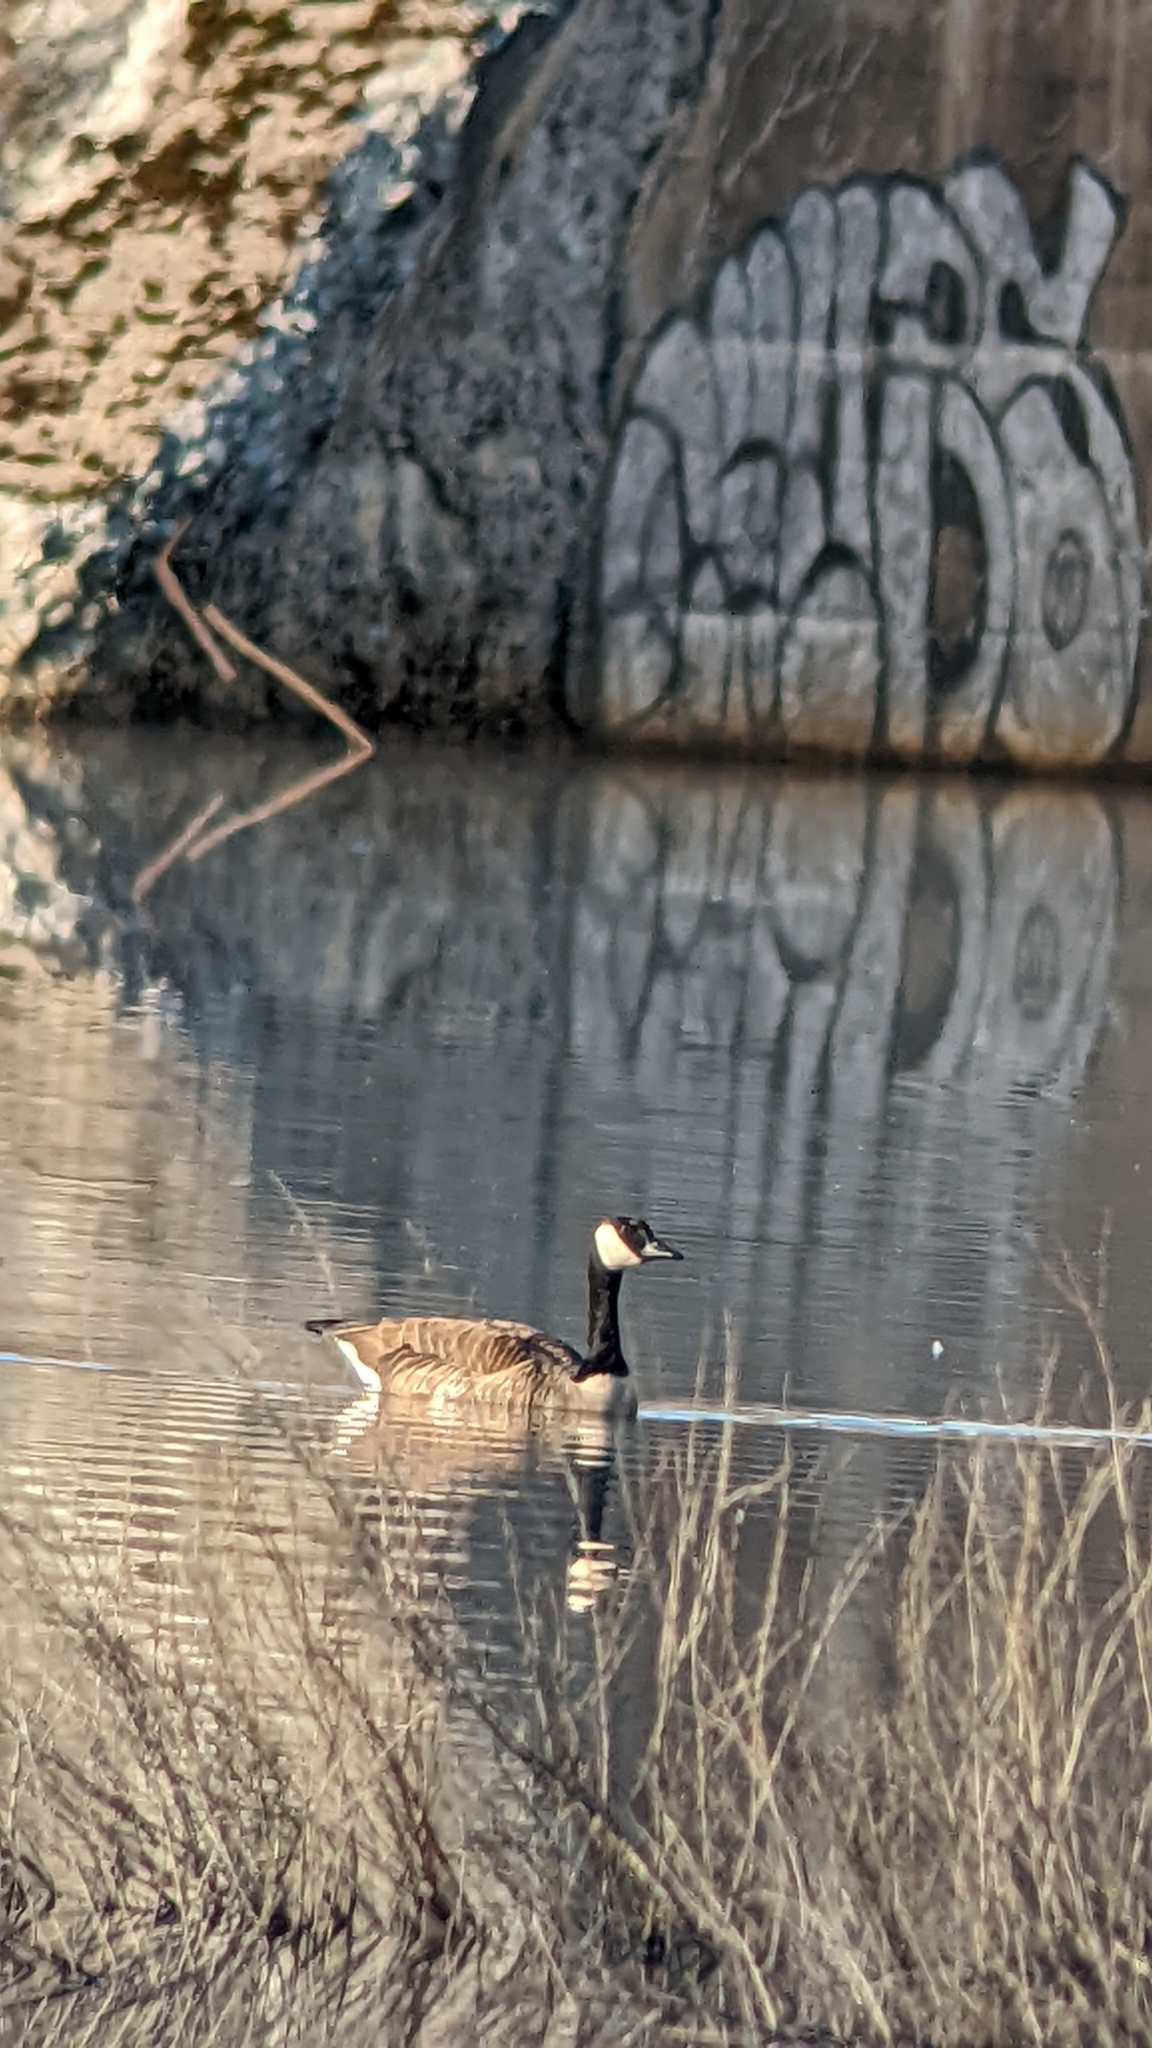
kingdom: Animalia
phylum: Chordata
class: Aves
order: Anseriformes
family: Anatidae
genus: Branta
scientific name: Branta canadensis
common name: Canada goose
